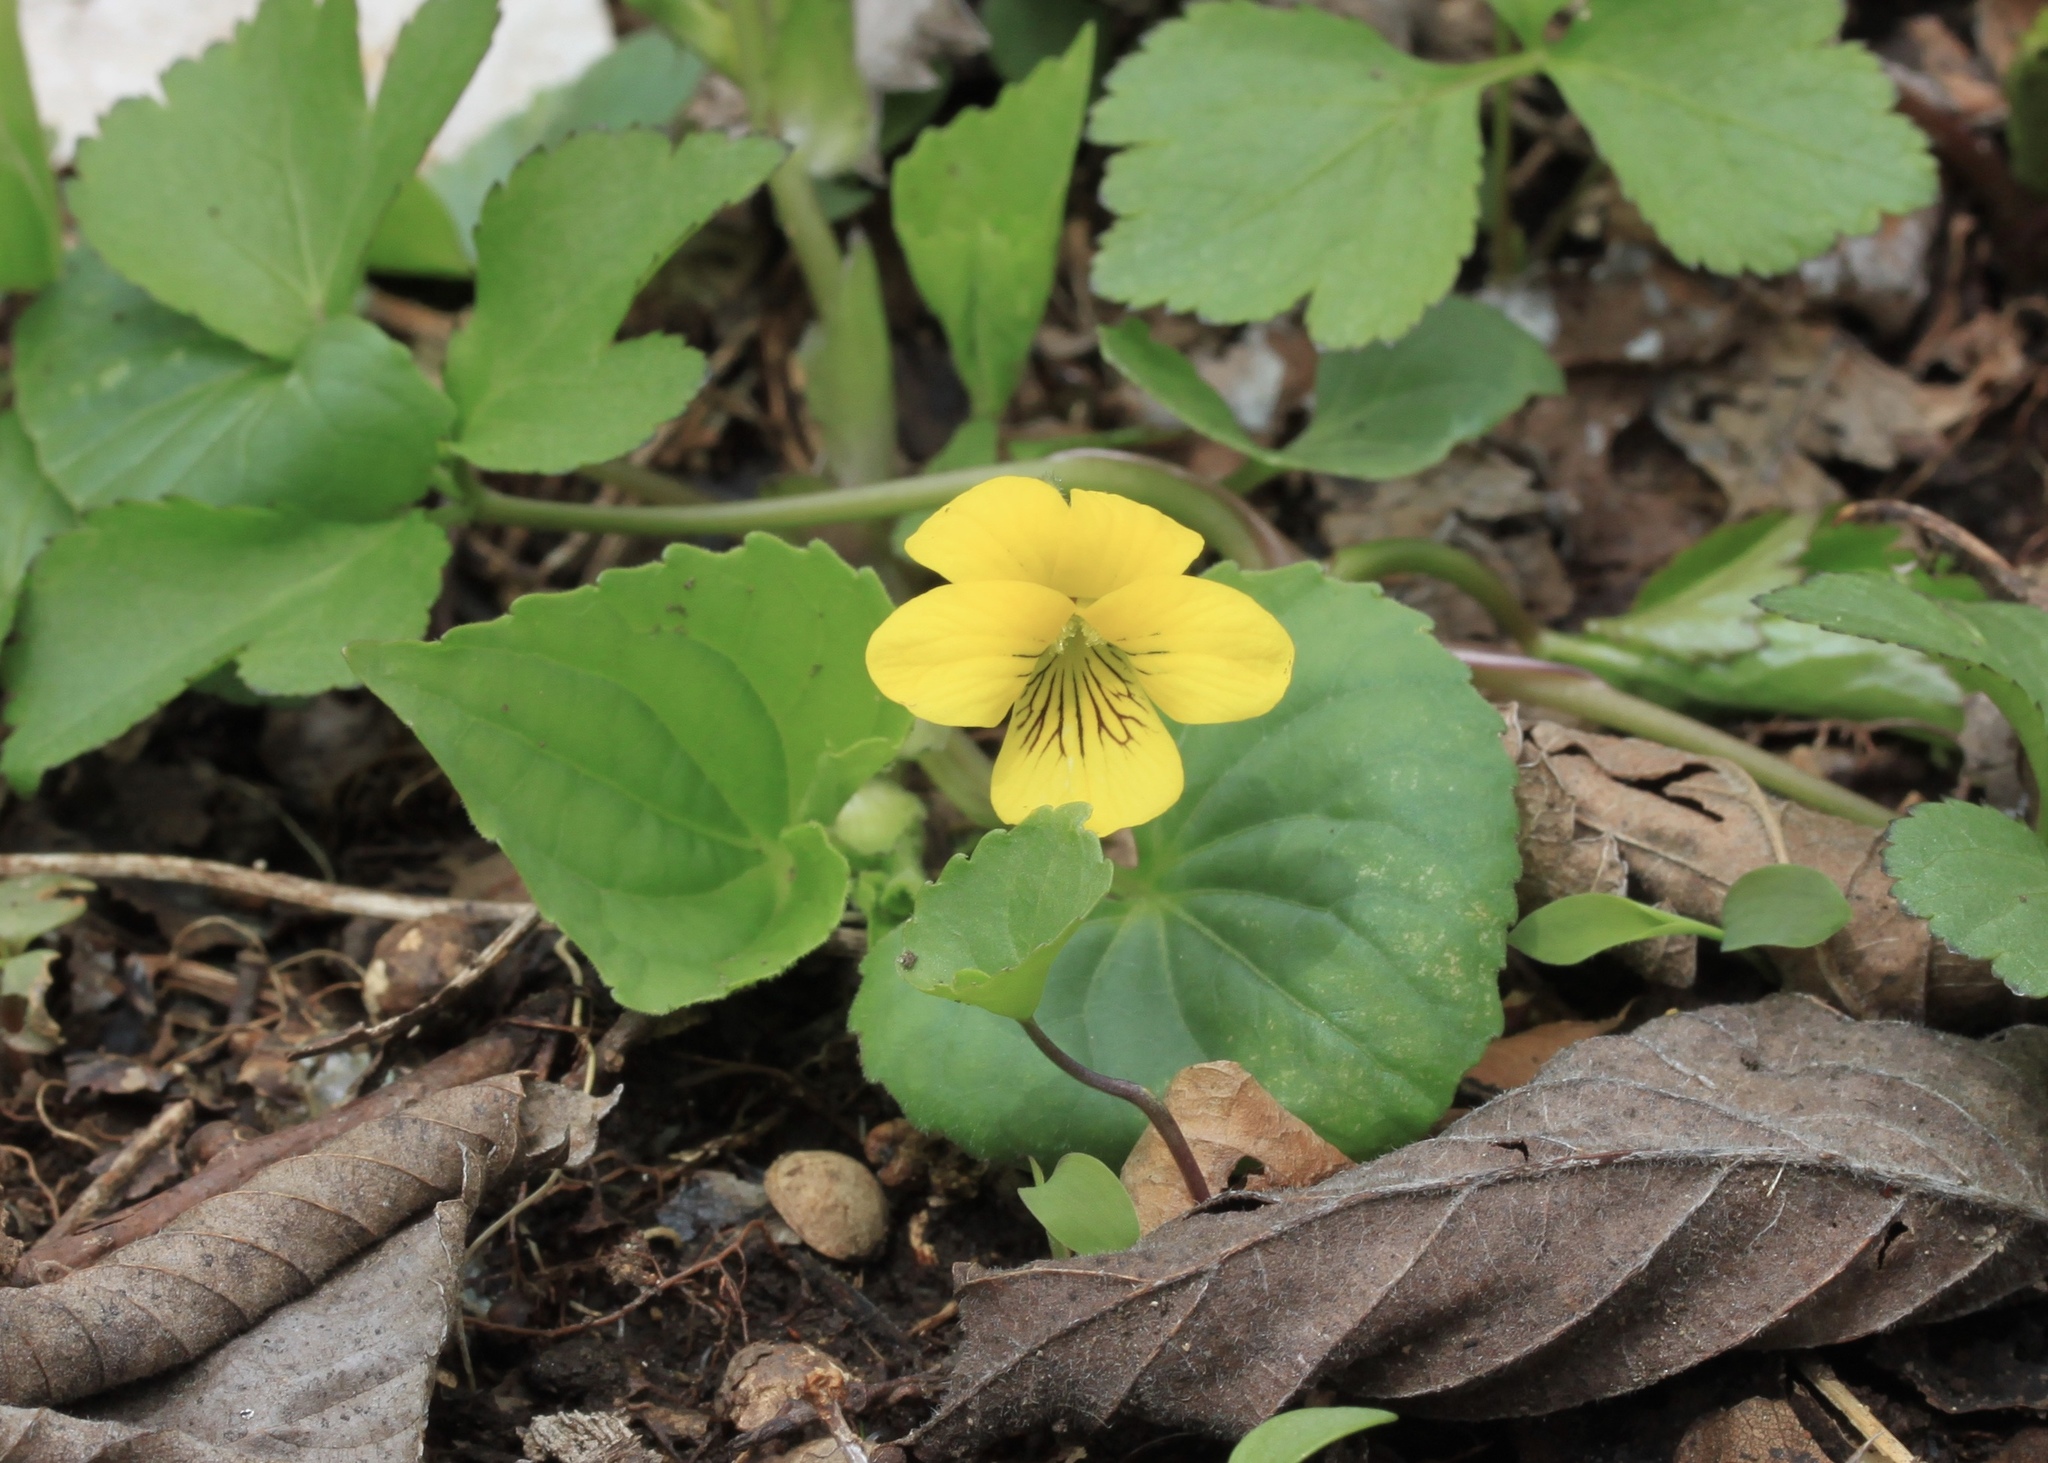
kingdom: Plantae
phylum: Tracheophyta
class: Magnoliopsida
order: Malpighiales
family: Violaceae
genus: Viola
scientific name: Viola eriocarpa
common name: Smooth yellow violet
